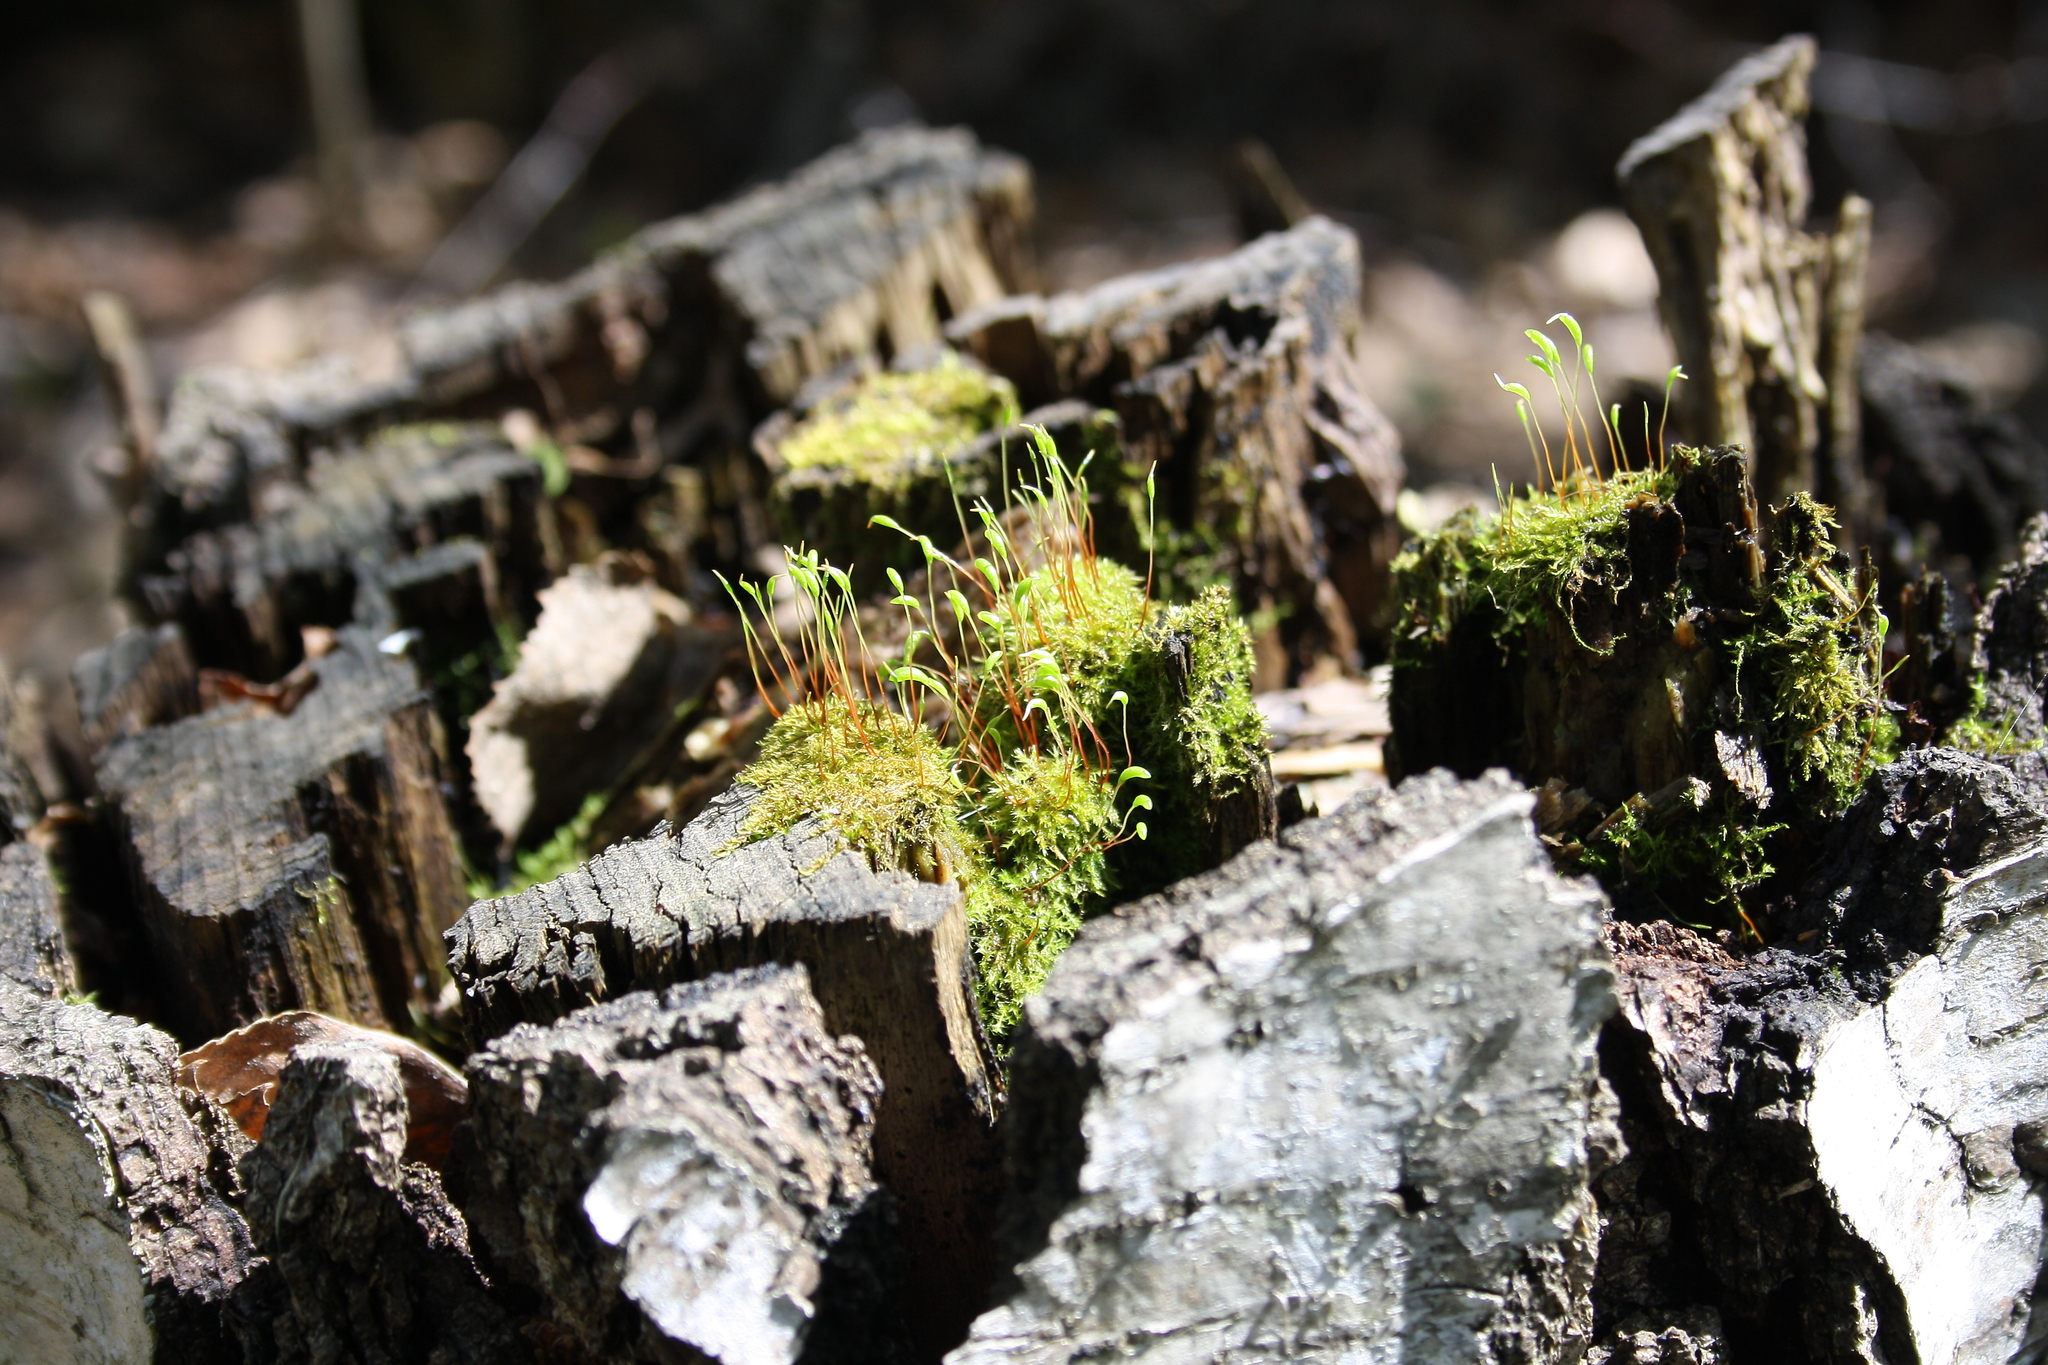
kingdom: Plantae
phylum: Bryophyta
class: Bryopsida
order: Hypnales
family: Amblystegiaceae
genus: Amblystegium
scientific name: Amblystegium serpens
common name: Jurkatzka's feather moss
